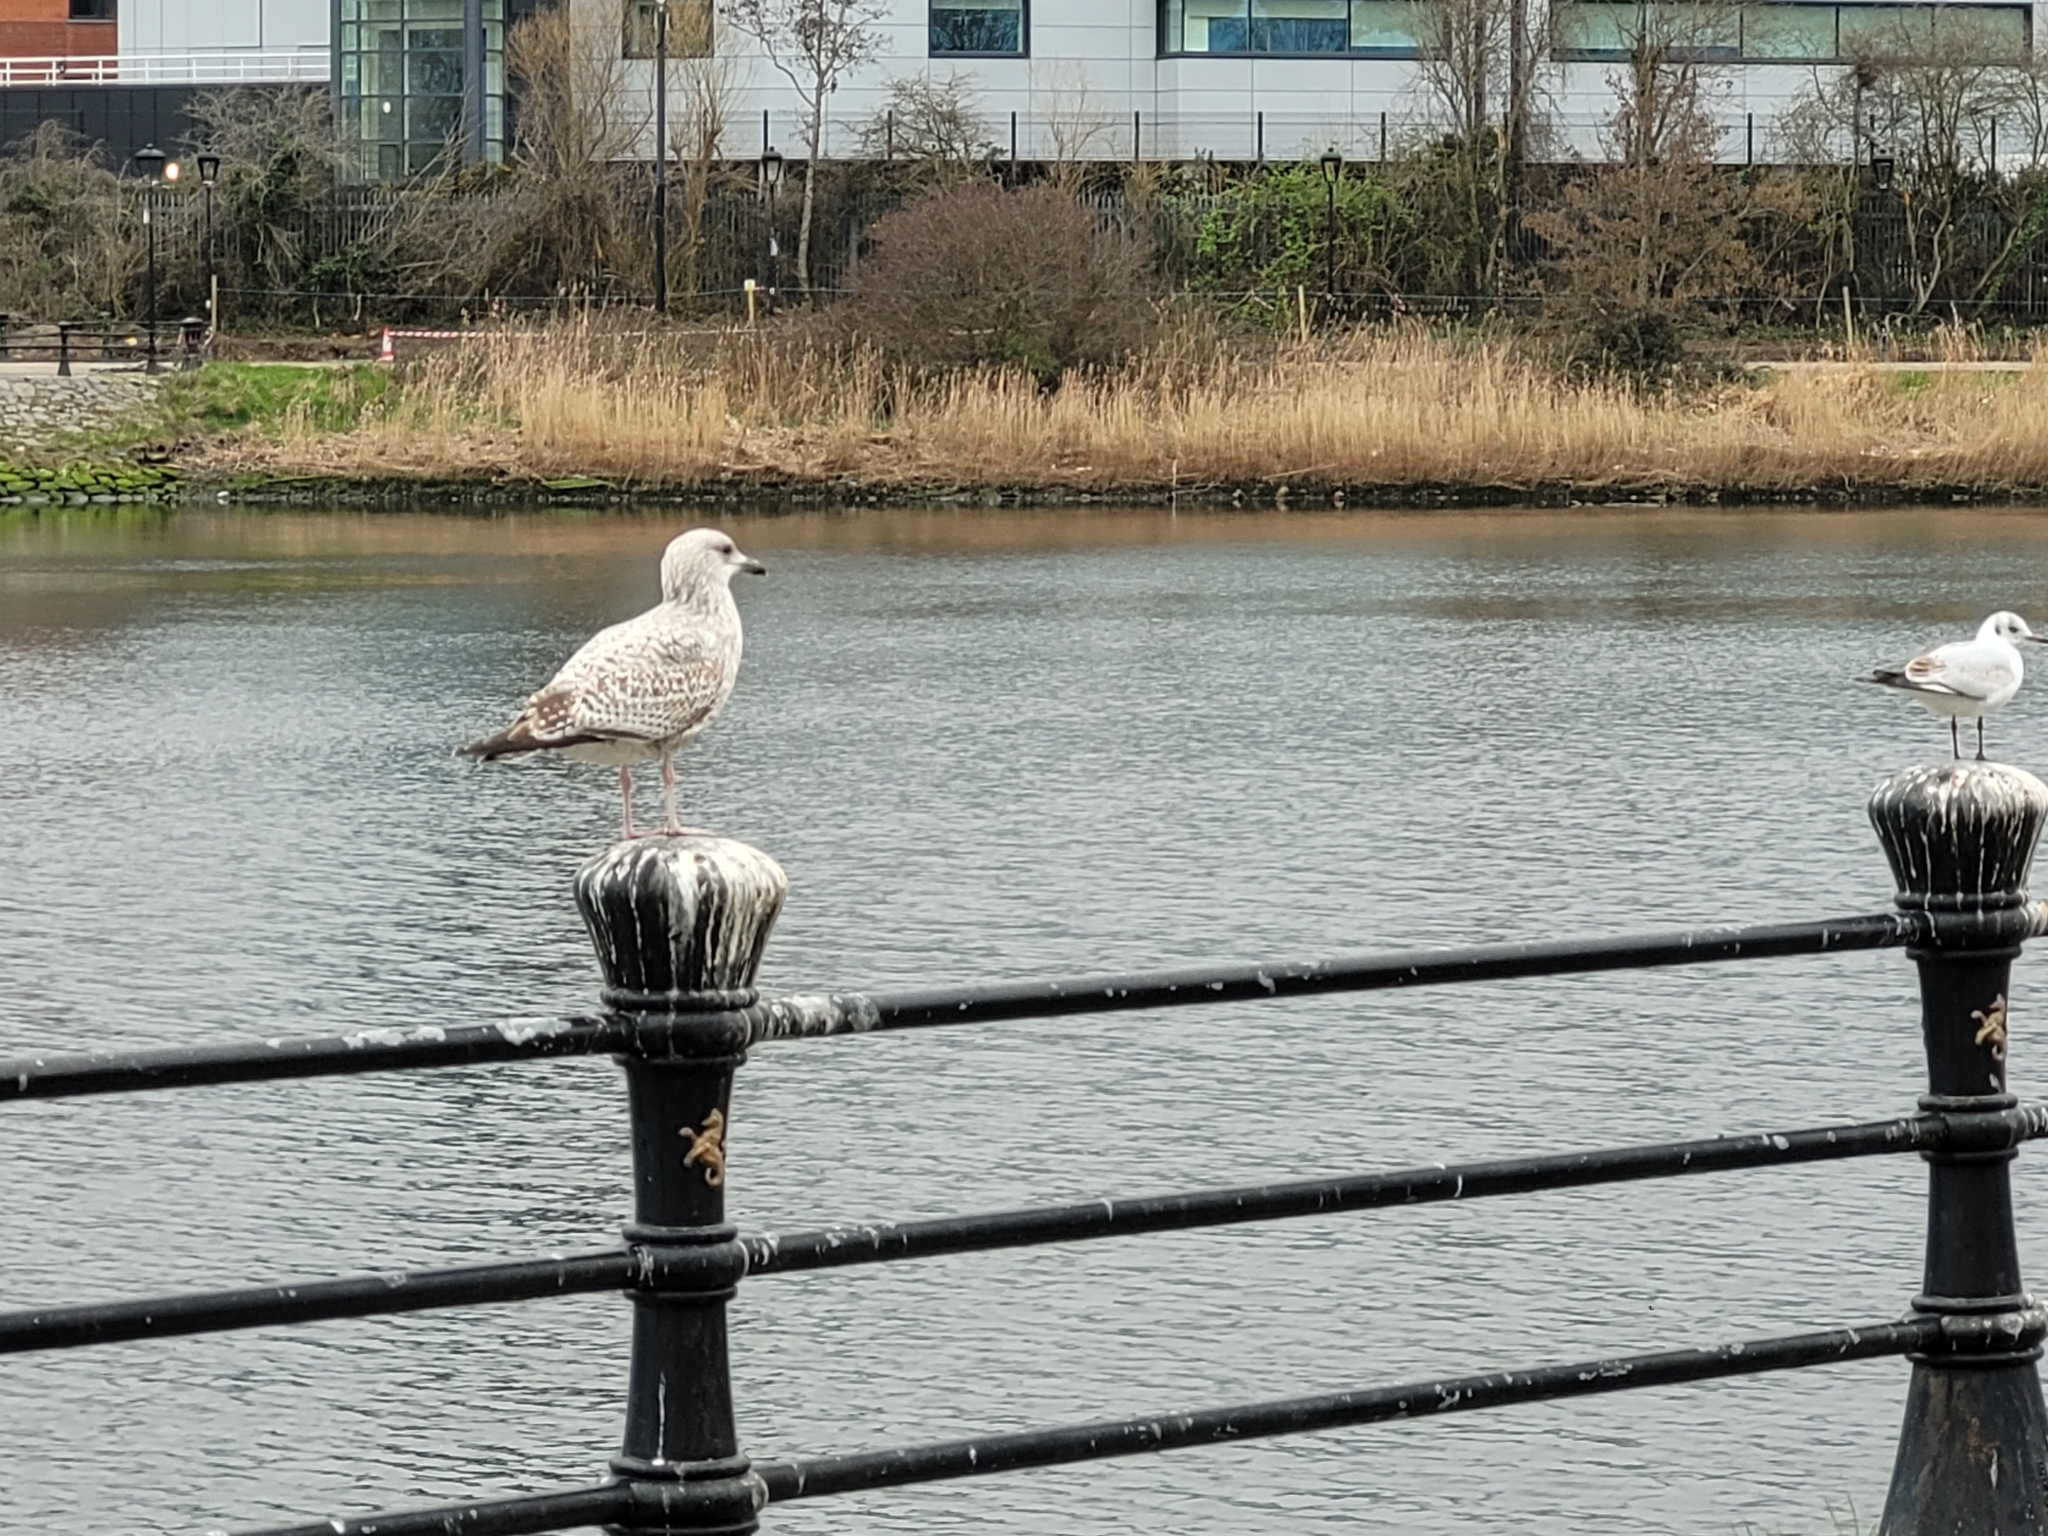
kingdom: Animalia
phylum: Chordata
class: Aves
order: Charadriiformes
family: Laridae
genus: Larus
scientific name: Larus argentatus
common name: Herring gull
